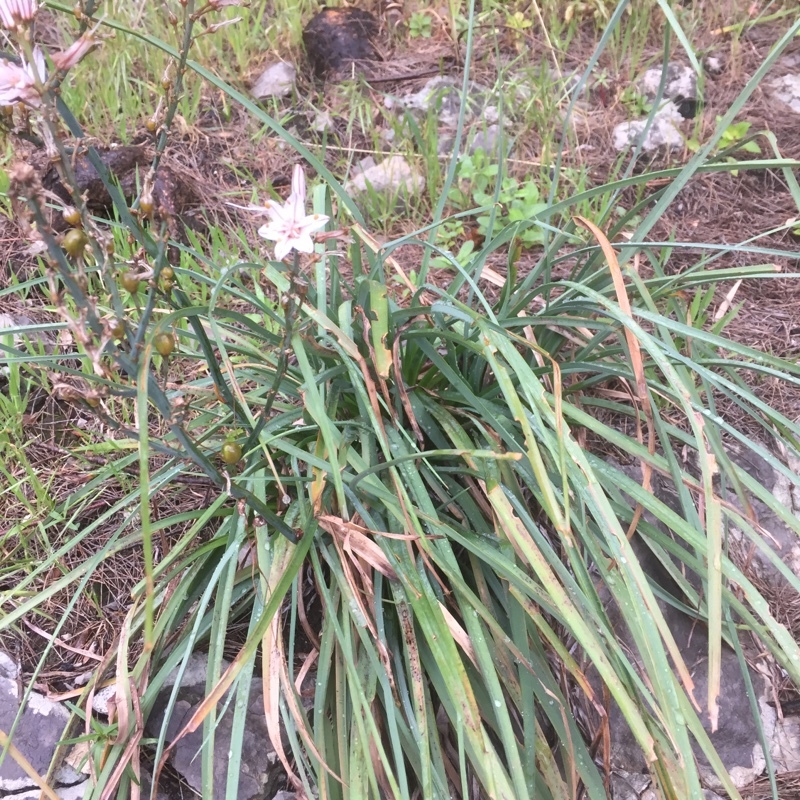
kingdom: Plantae
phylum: Tracheophyta
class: Liliopsida
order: Asparagales
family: Asphodelaceae
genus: Asphodelus
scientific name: Asphodelus ramosus
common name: Silverrod
